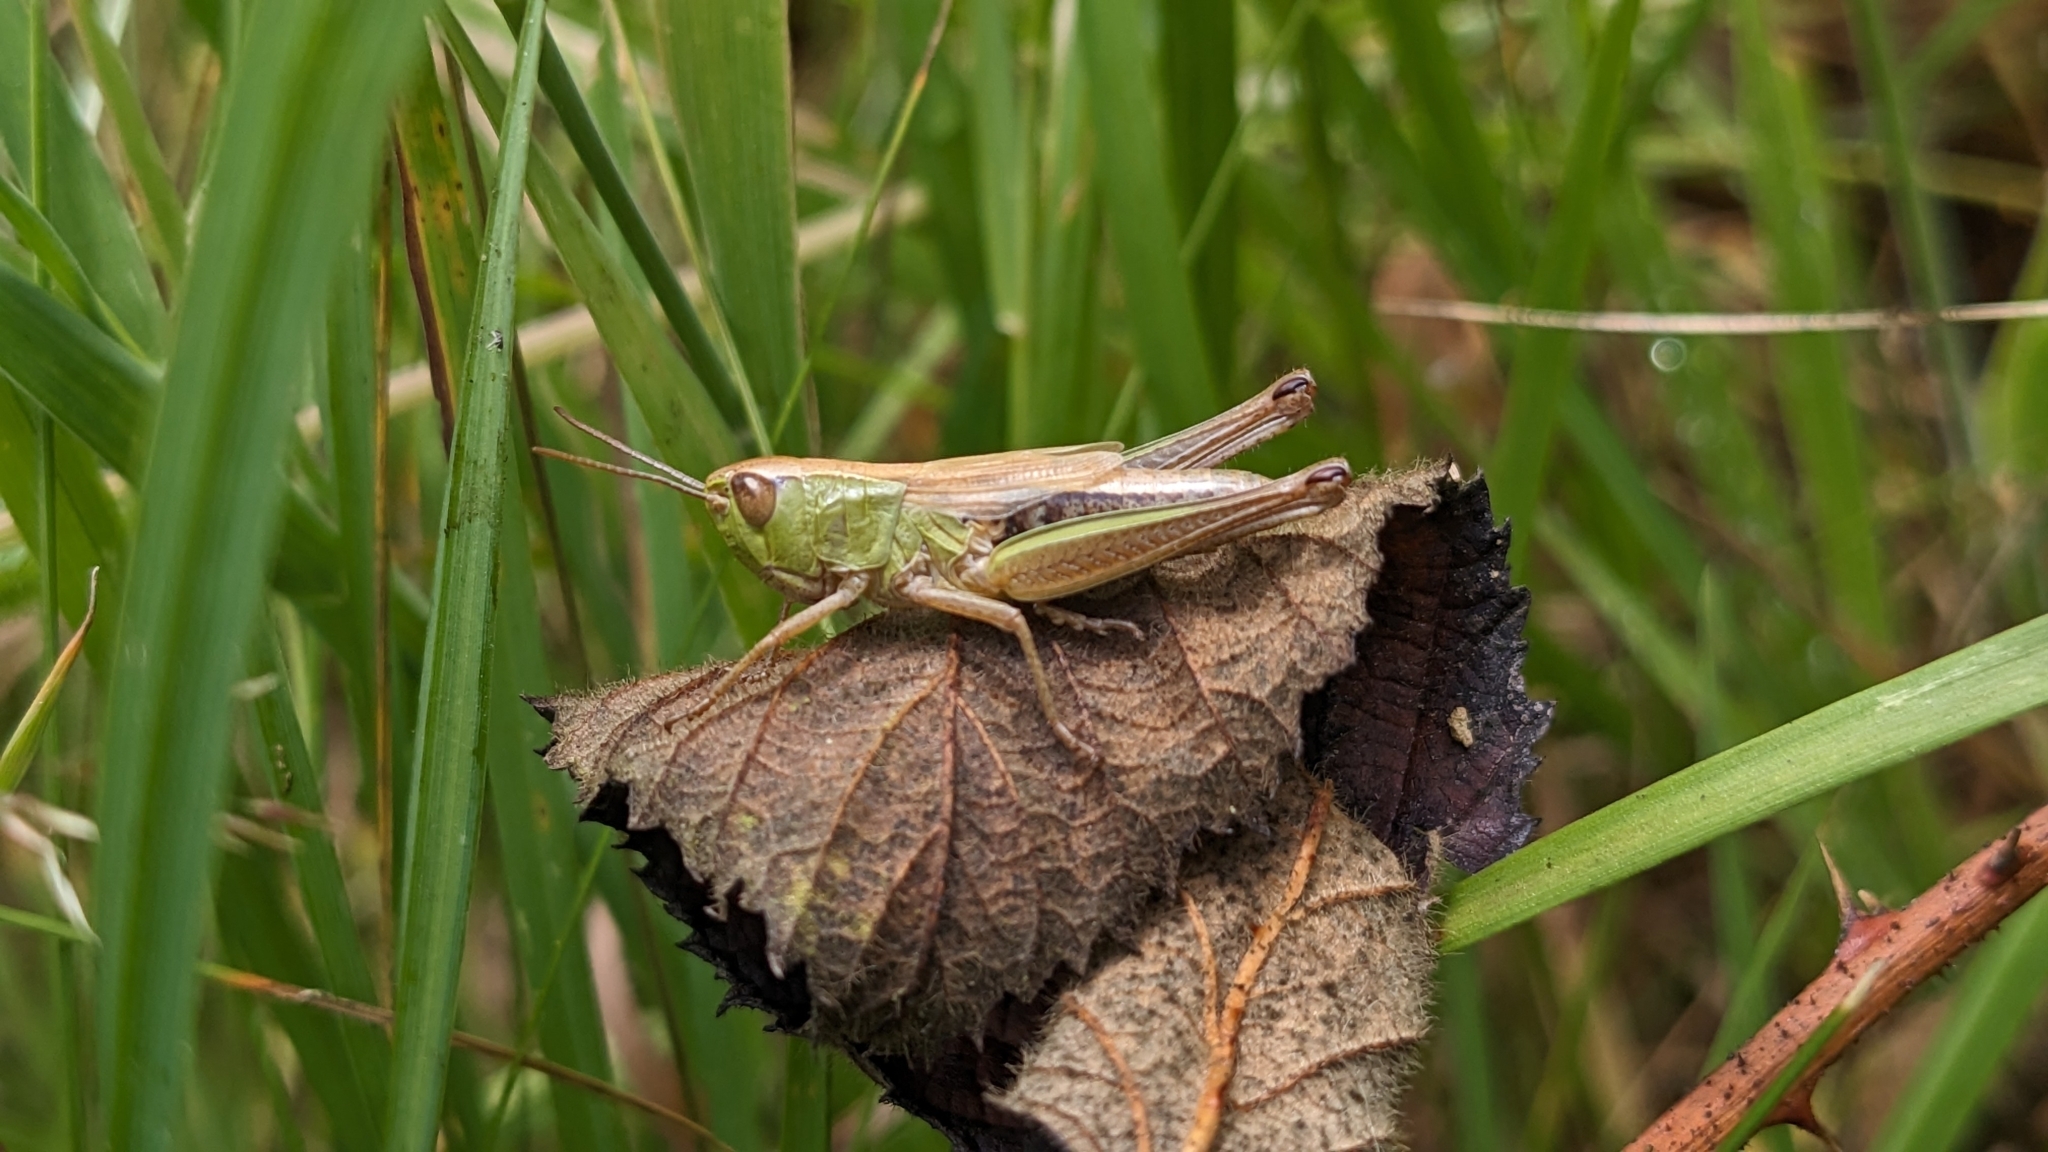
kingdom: Animalia
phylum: Arthropoda
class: Insecta
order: Orthoptera
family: Acrididae
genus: Pseudochorthippus
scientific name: Pseudochorthippus parallelus
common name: Meadow grasshopper
